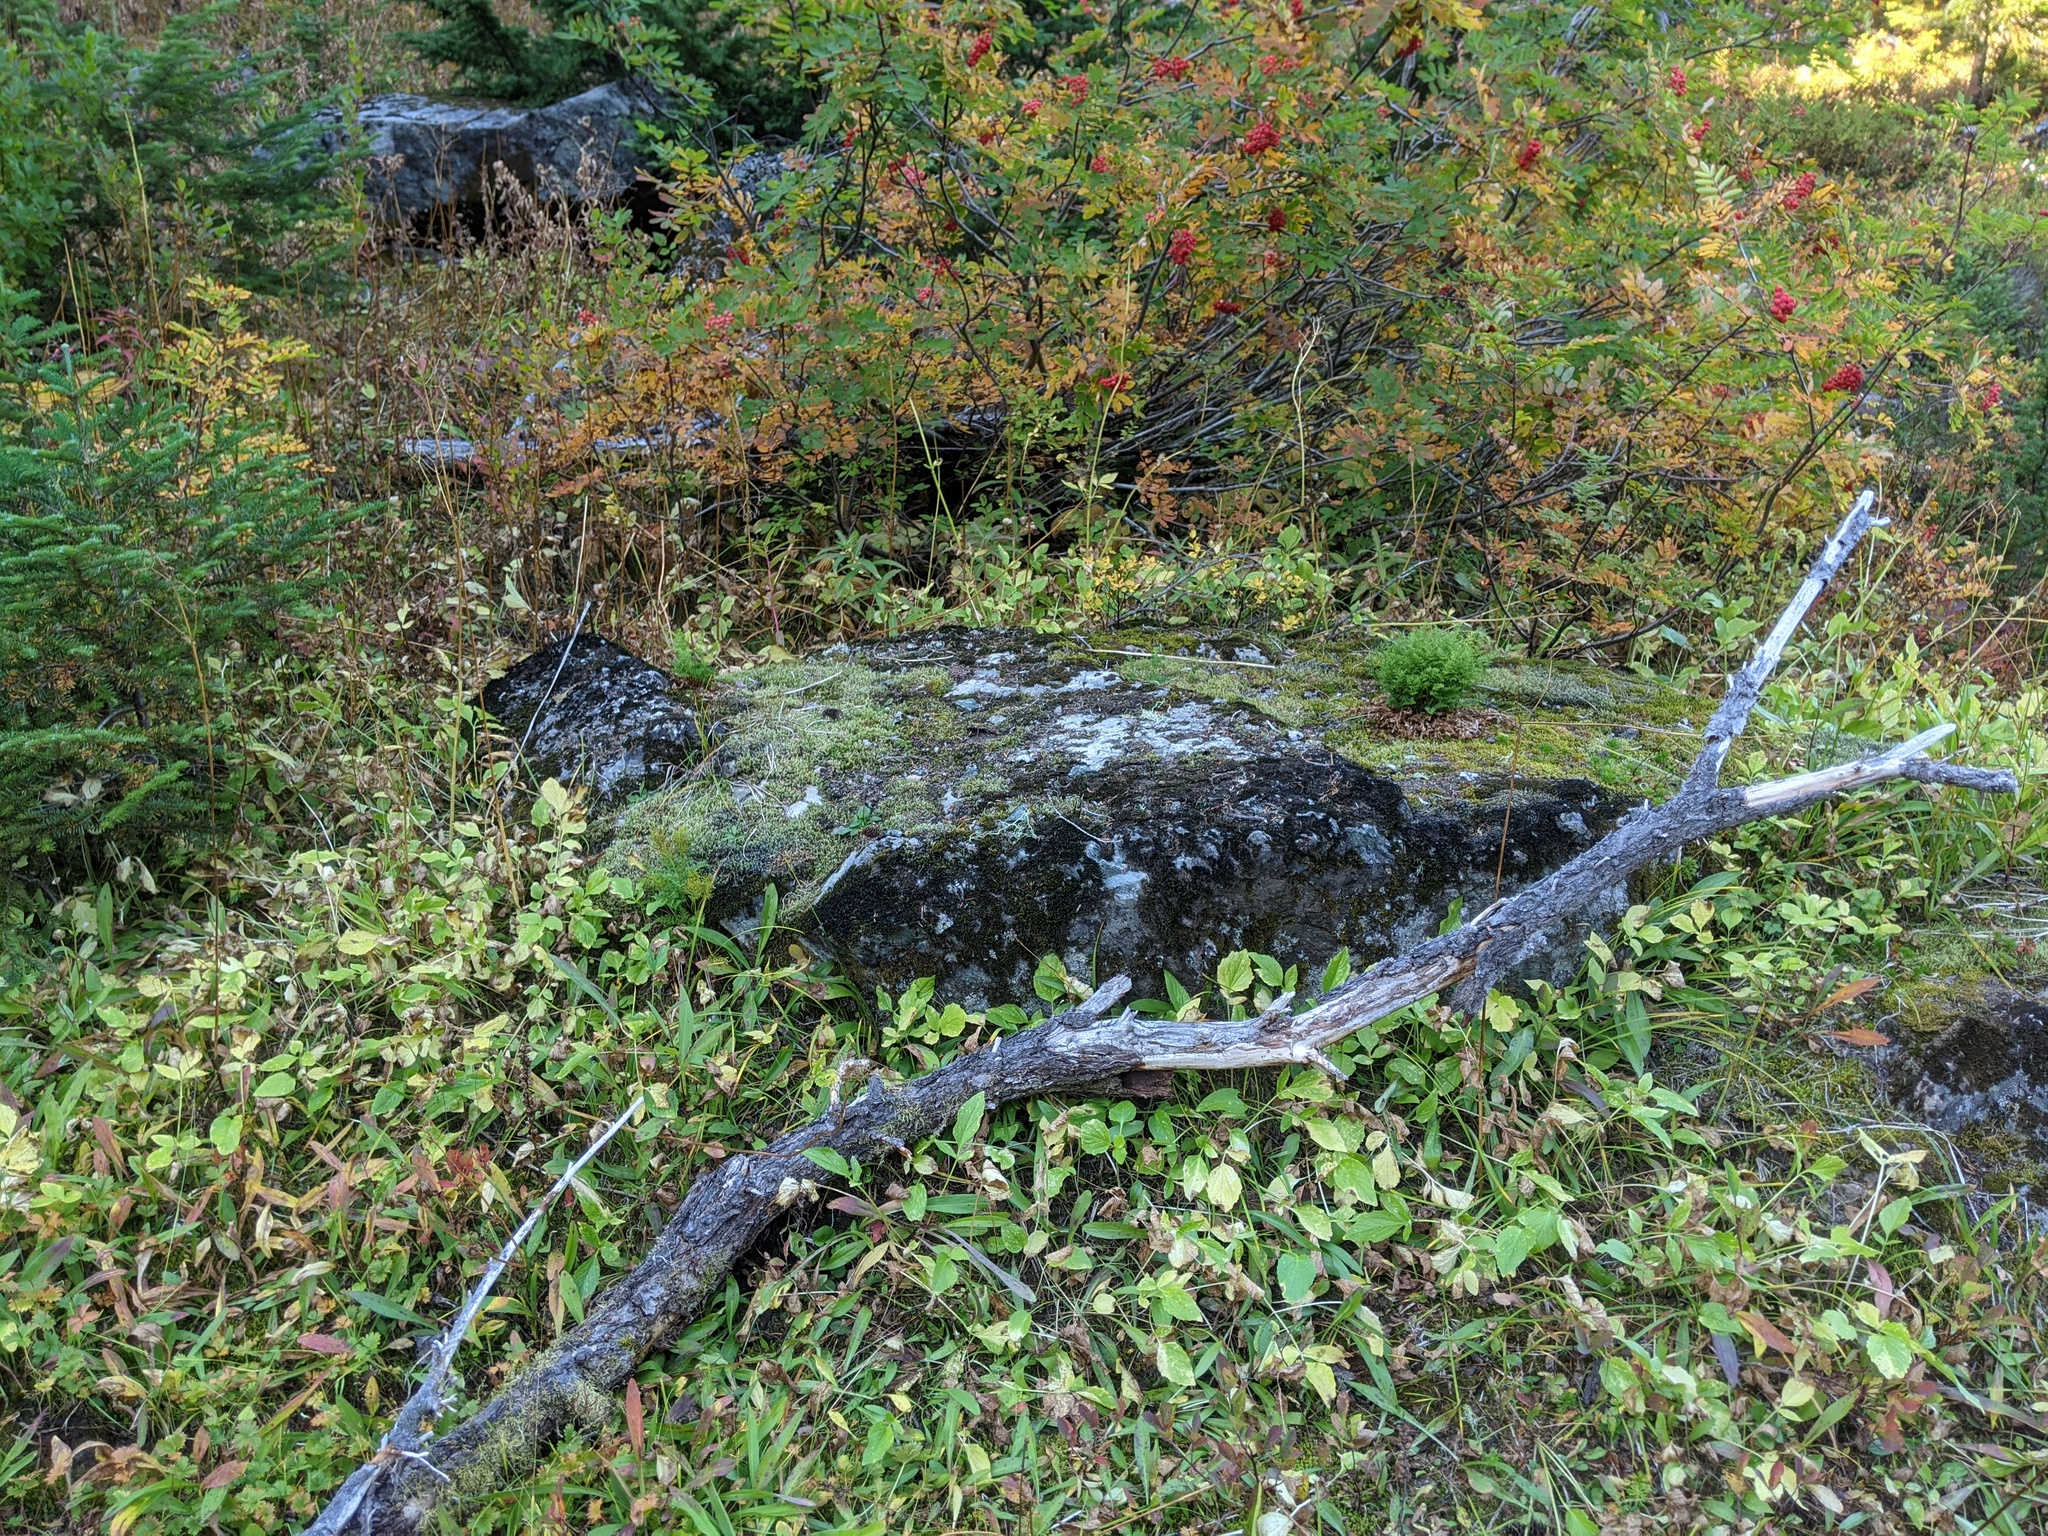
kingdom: Plantae
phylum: Tracheophyta
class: Polypodiopsida
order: Polypodiales
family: Pteridaceae
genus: Cryptogramma
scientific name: Cryptogramma acrostichoides
